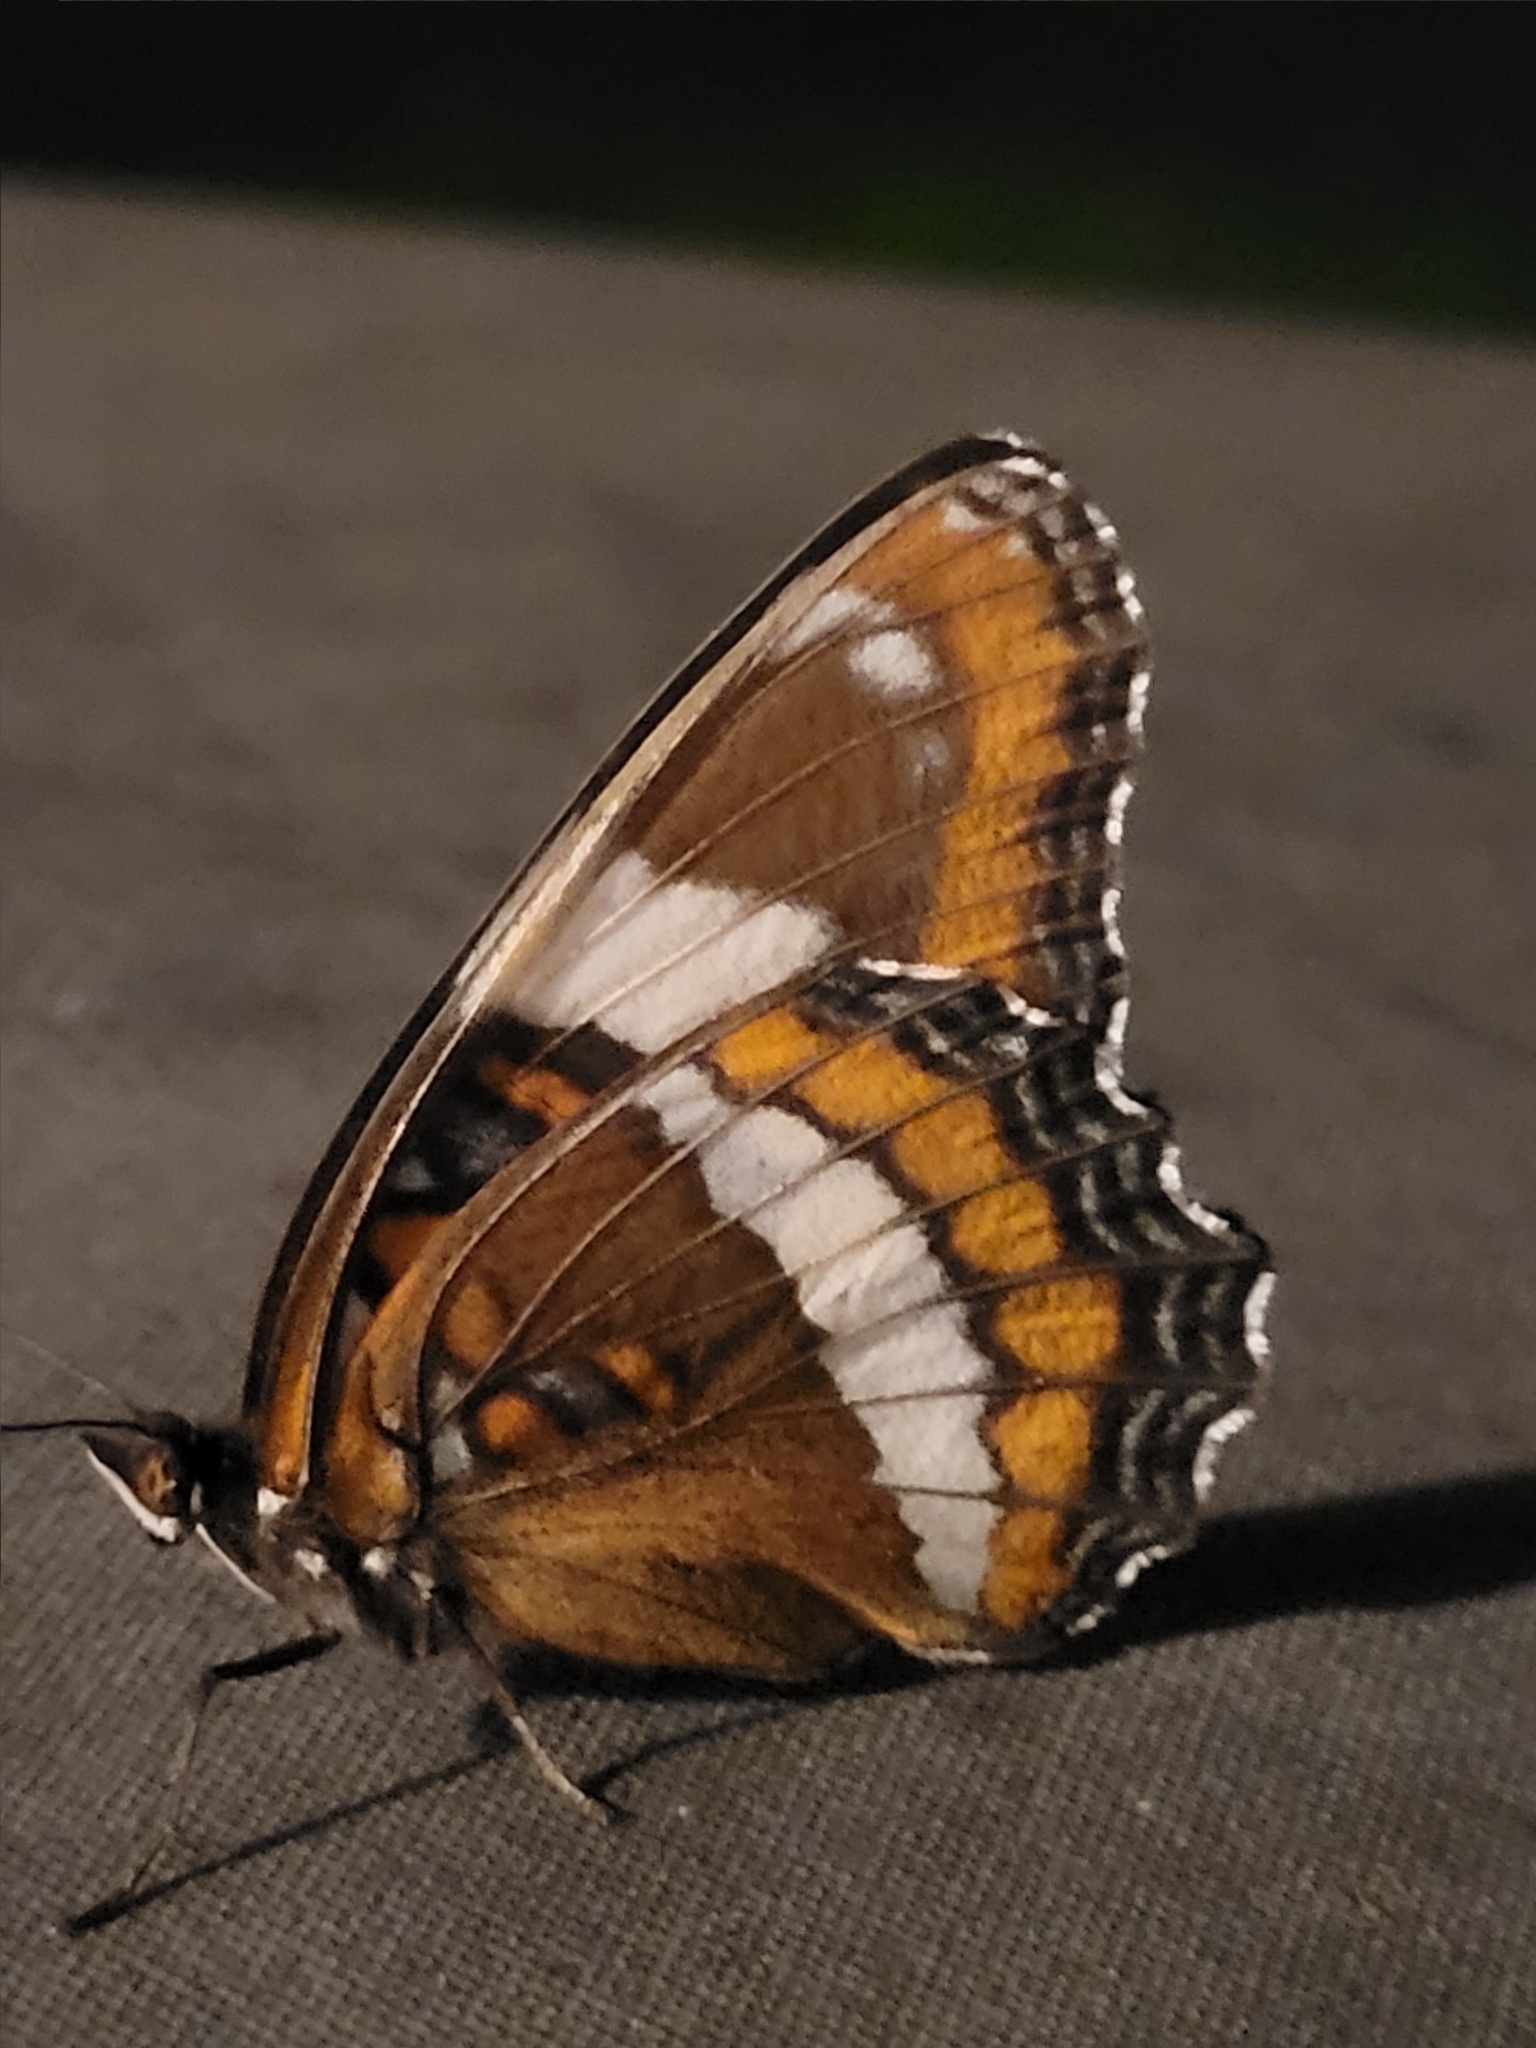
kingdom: Animalia
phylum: Arthropoda
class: Insecta
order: Lepidoptera
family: Nymphalidae
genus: Limenitis
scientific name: Limenitis arthemis
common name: Red-spotted admiral
